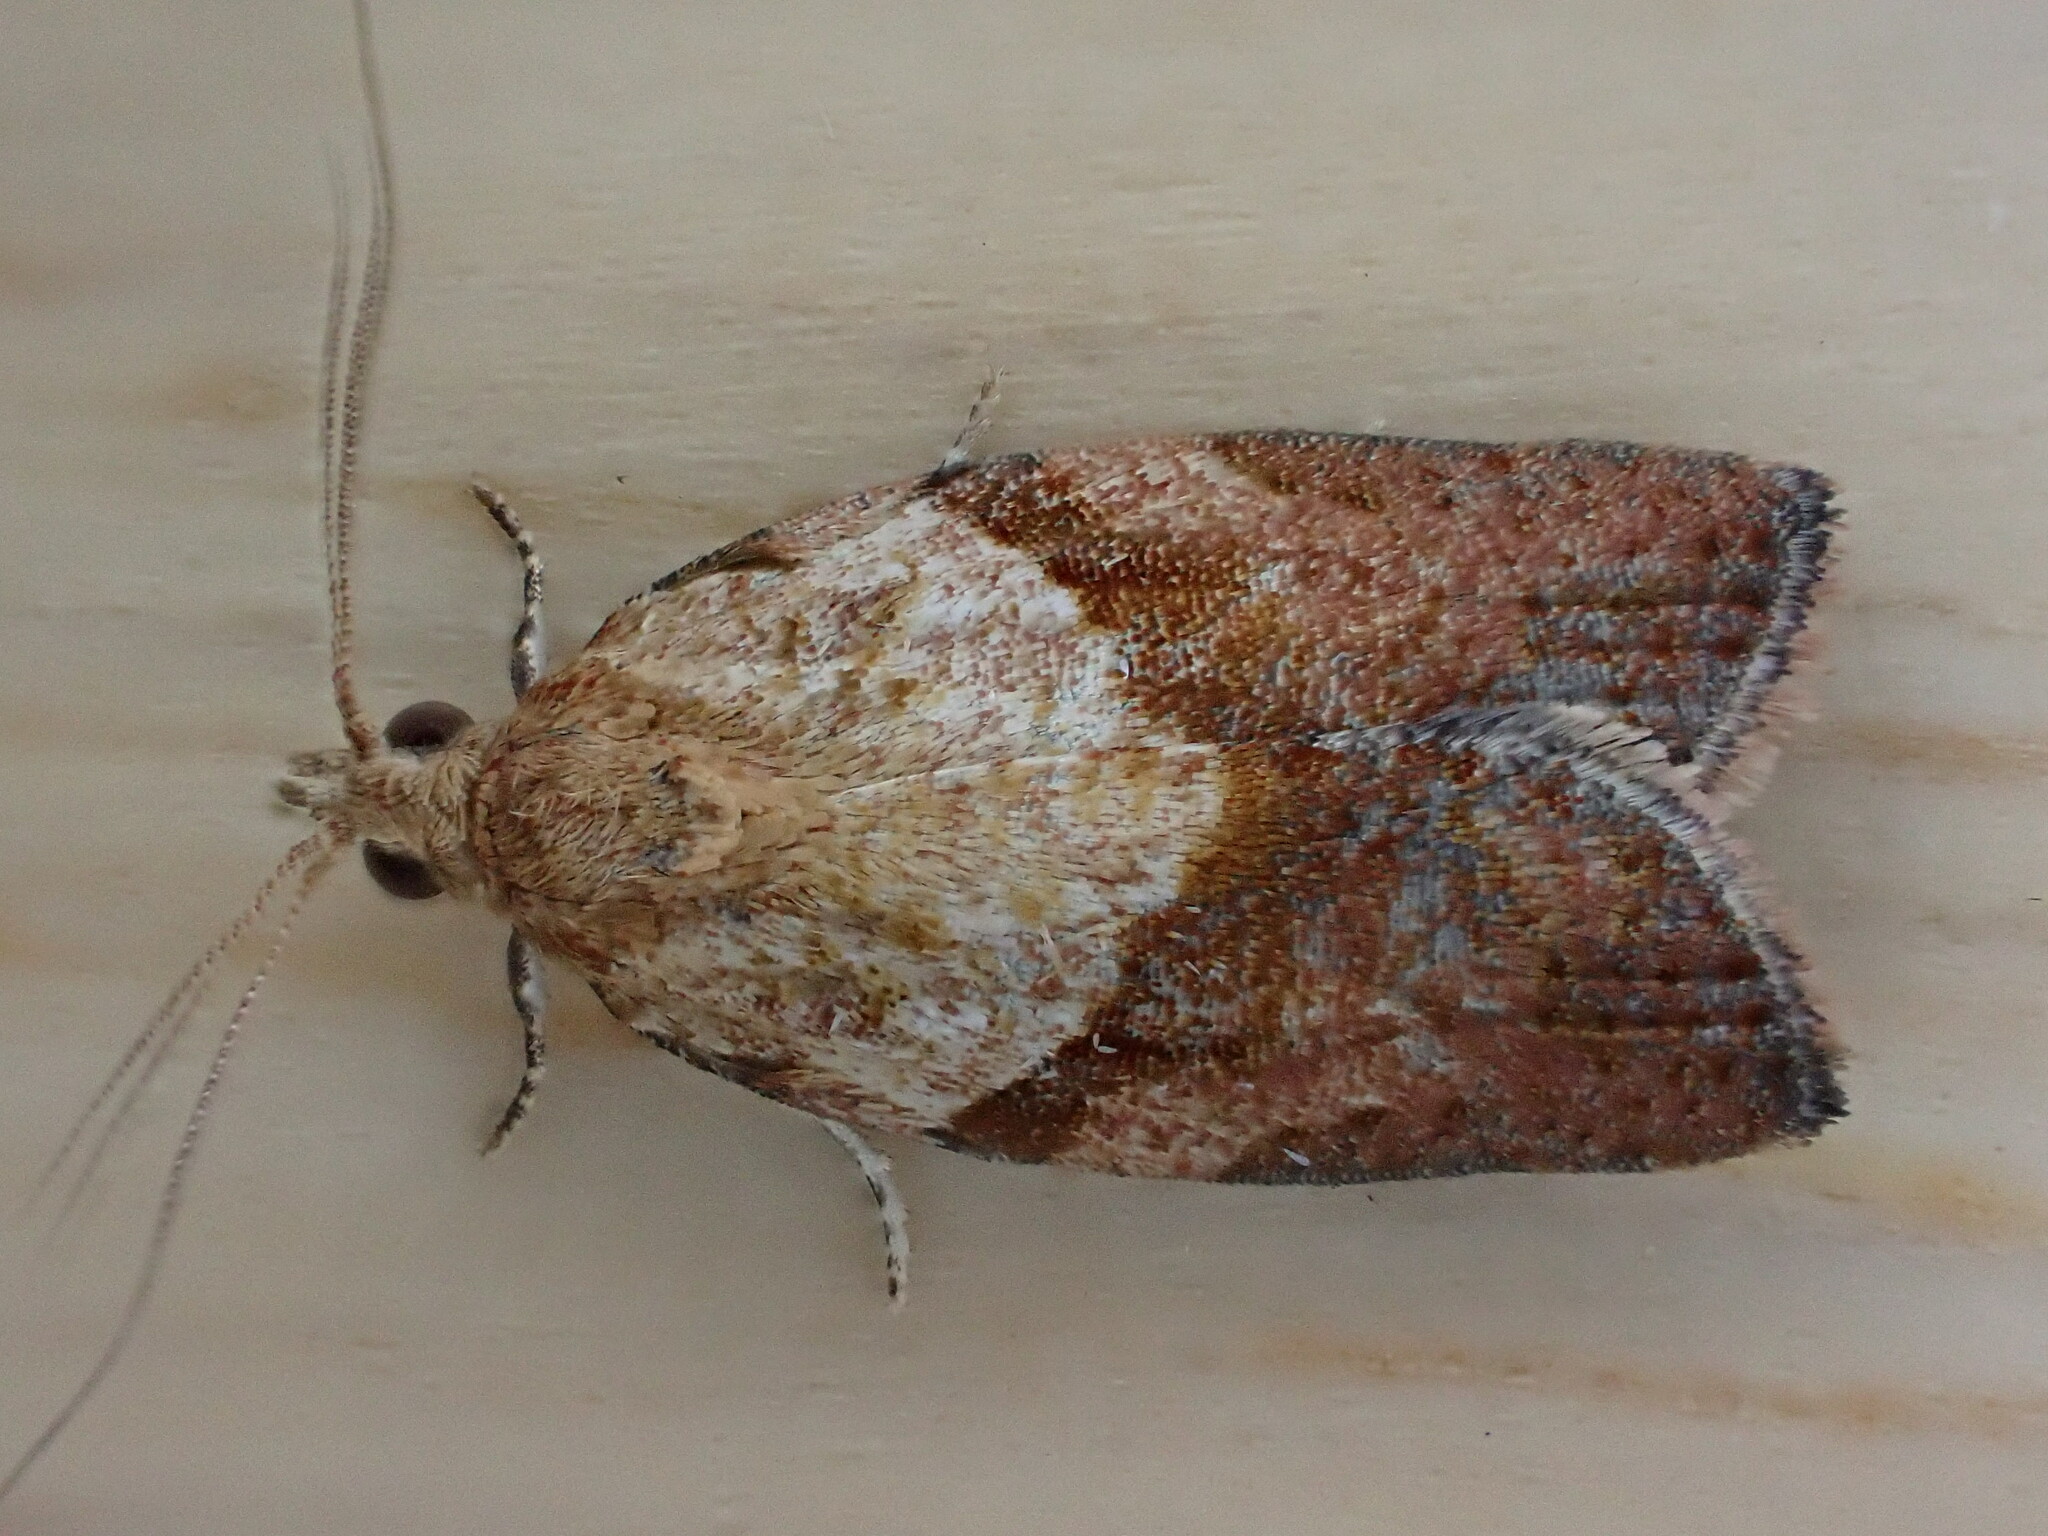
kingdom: Animalia
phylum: Arthropoda
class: Insecta
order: Lepidoptera
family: Tortricidae
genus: Epiphyas
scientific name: Epiphyas postvittana
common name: Light brown apple moth
